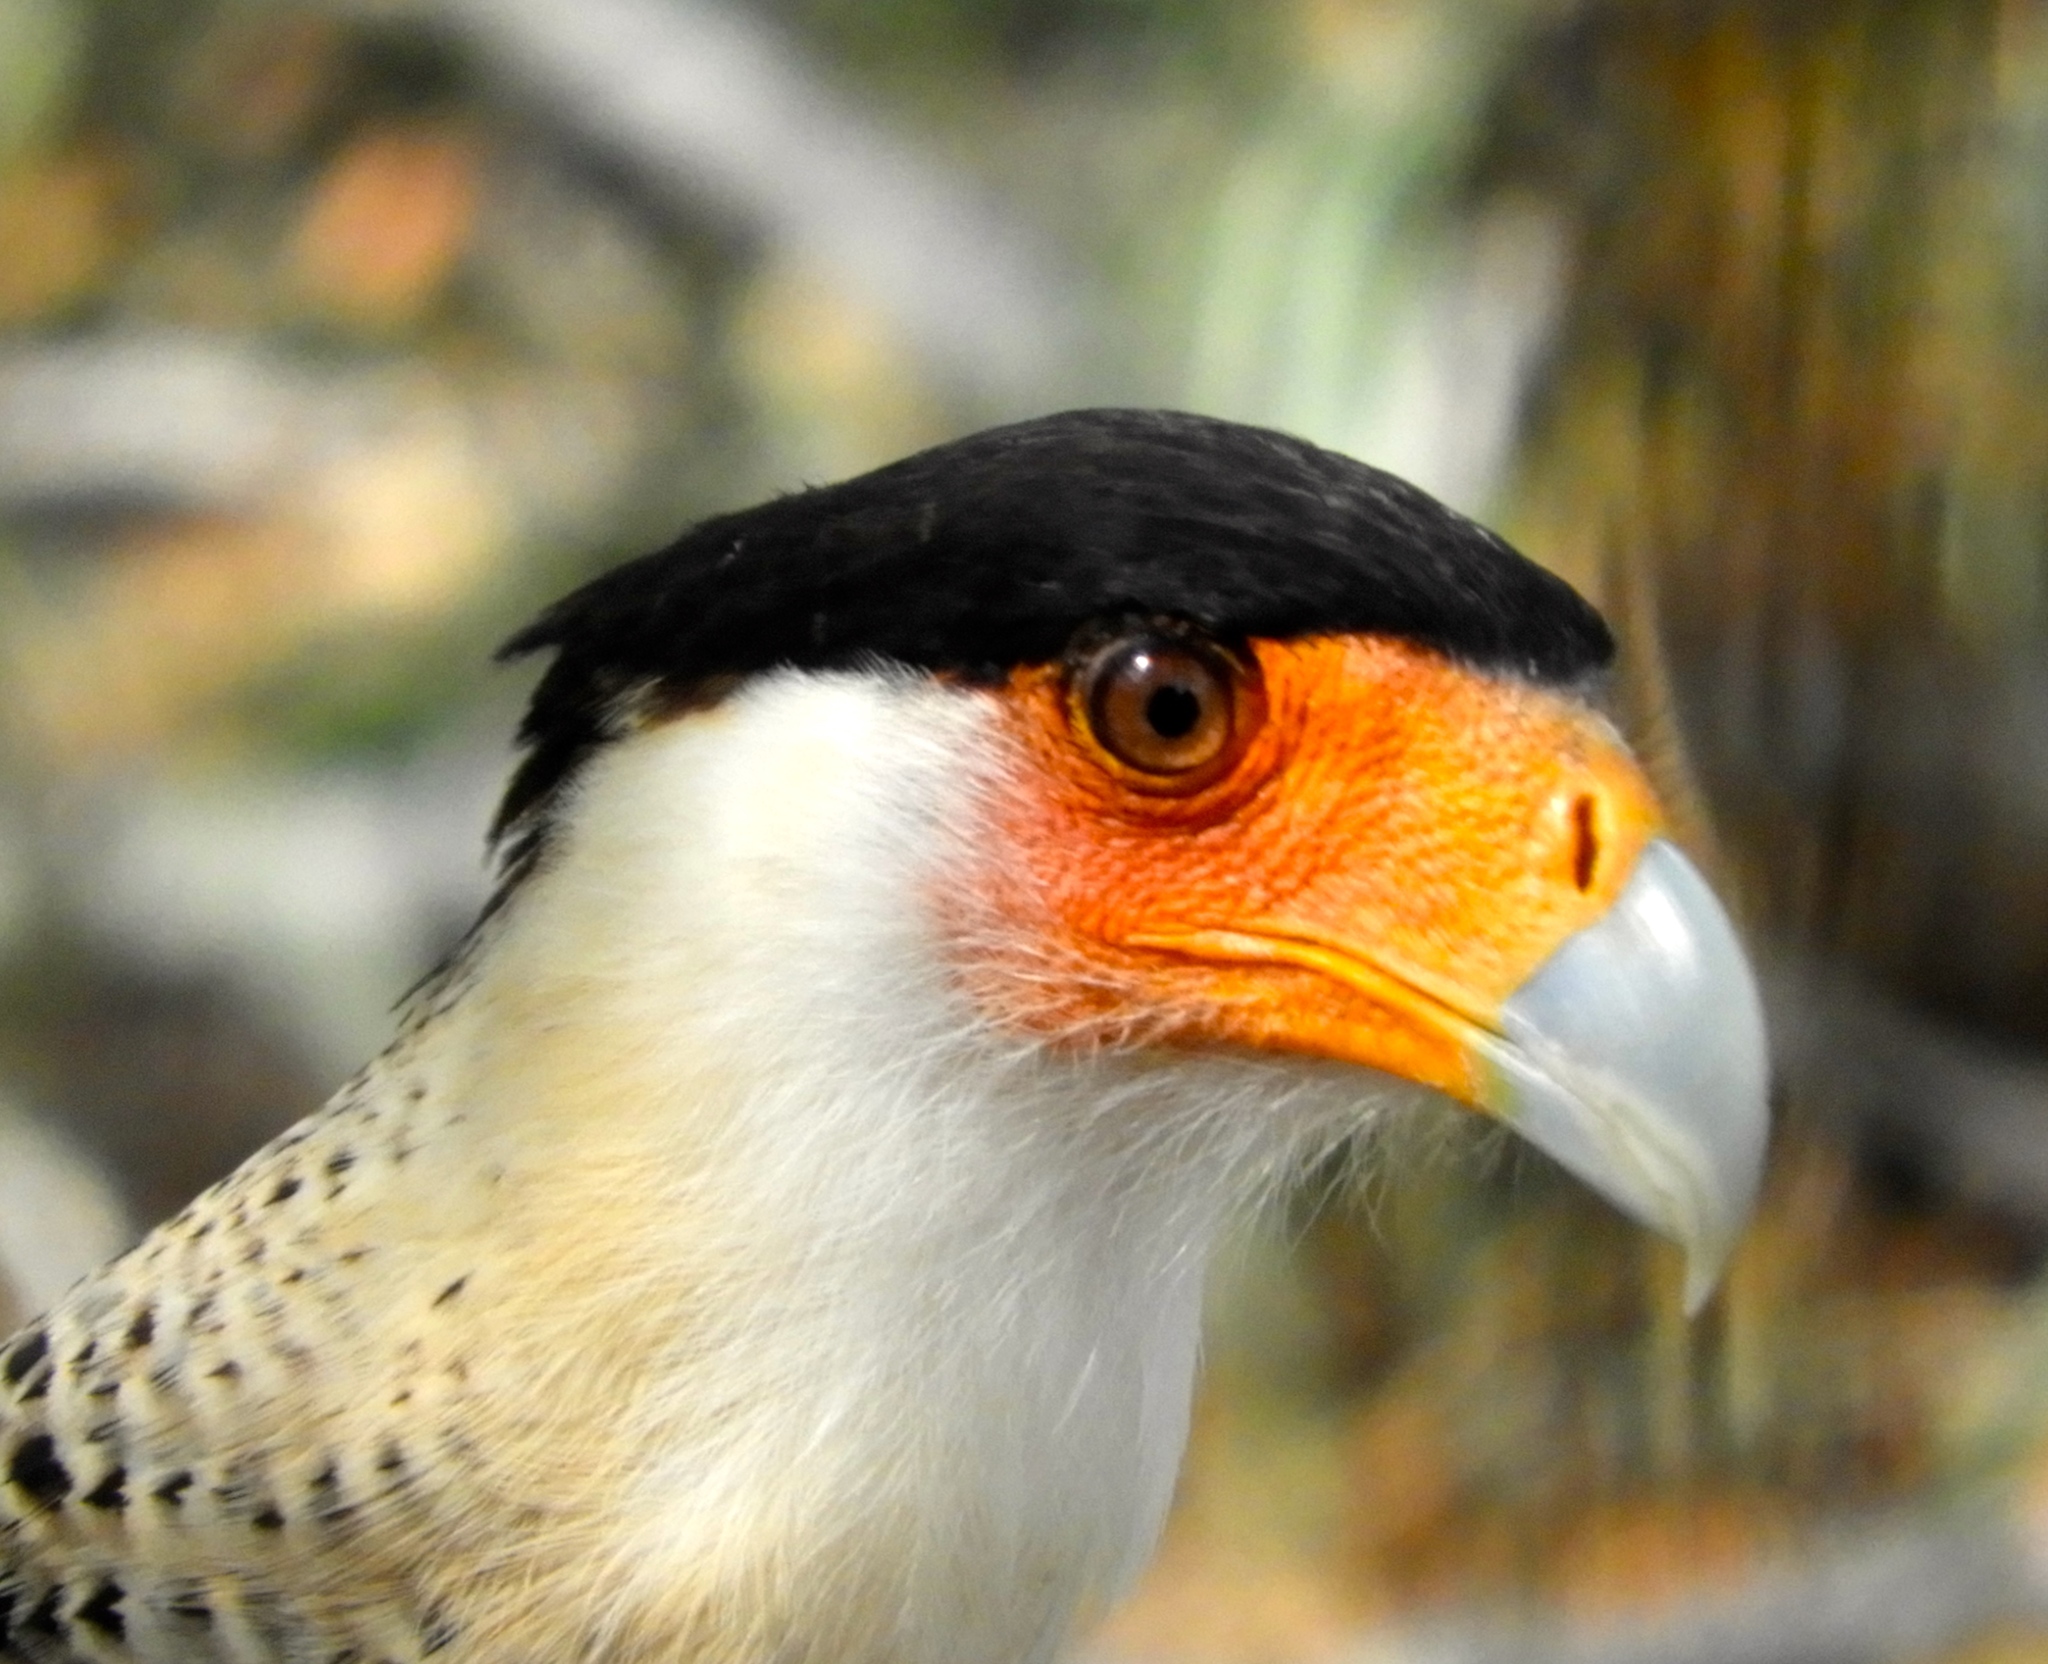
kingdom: Animalia
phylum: Chordata
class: Aves
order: Falconiformes
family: Falconidae
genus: Caracara
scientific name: Caracara plancus
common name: Southern caracara
